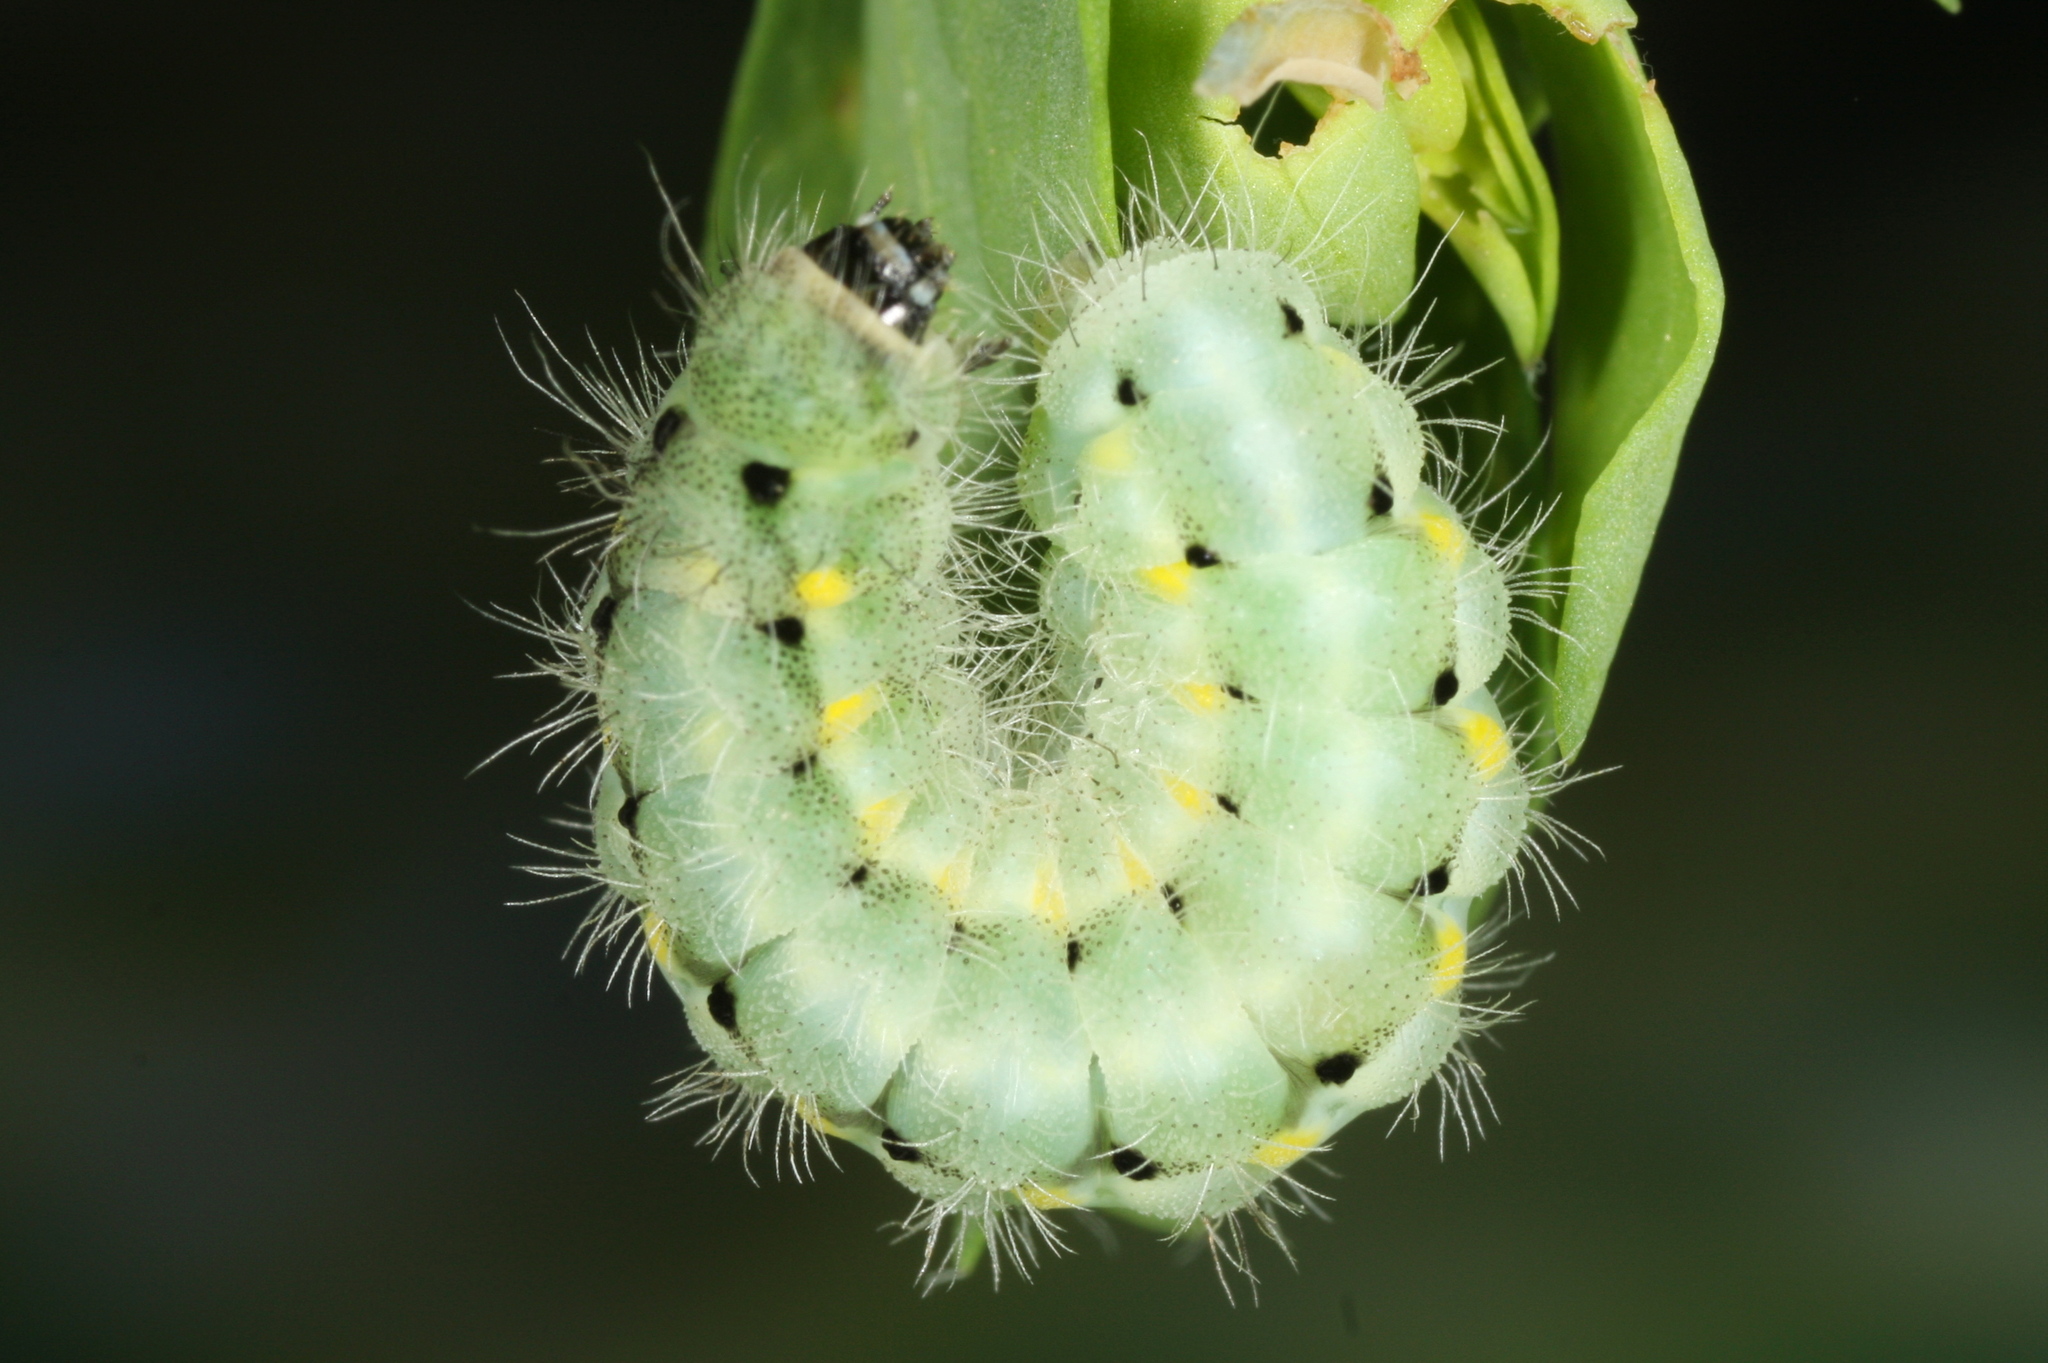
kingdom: Animalia
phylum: Arthropoda
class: Insecta
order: Lepidoptera
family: Zygaenidae
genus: Zygaena
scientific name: Zygaena viciae
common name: New forest burnet
